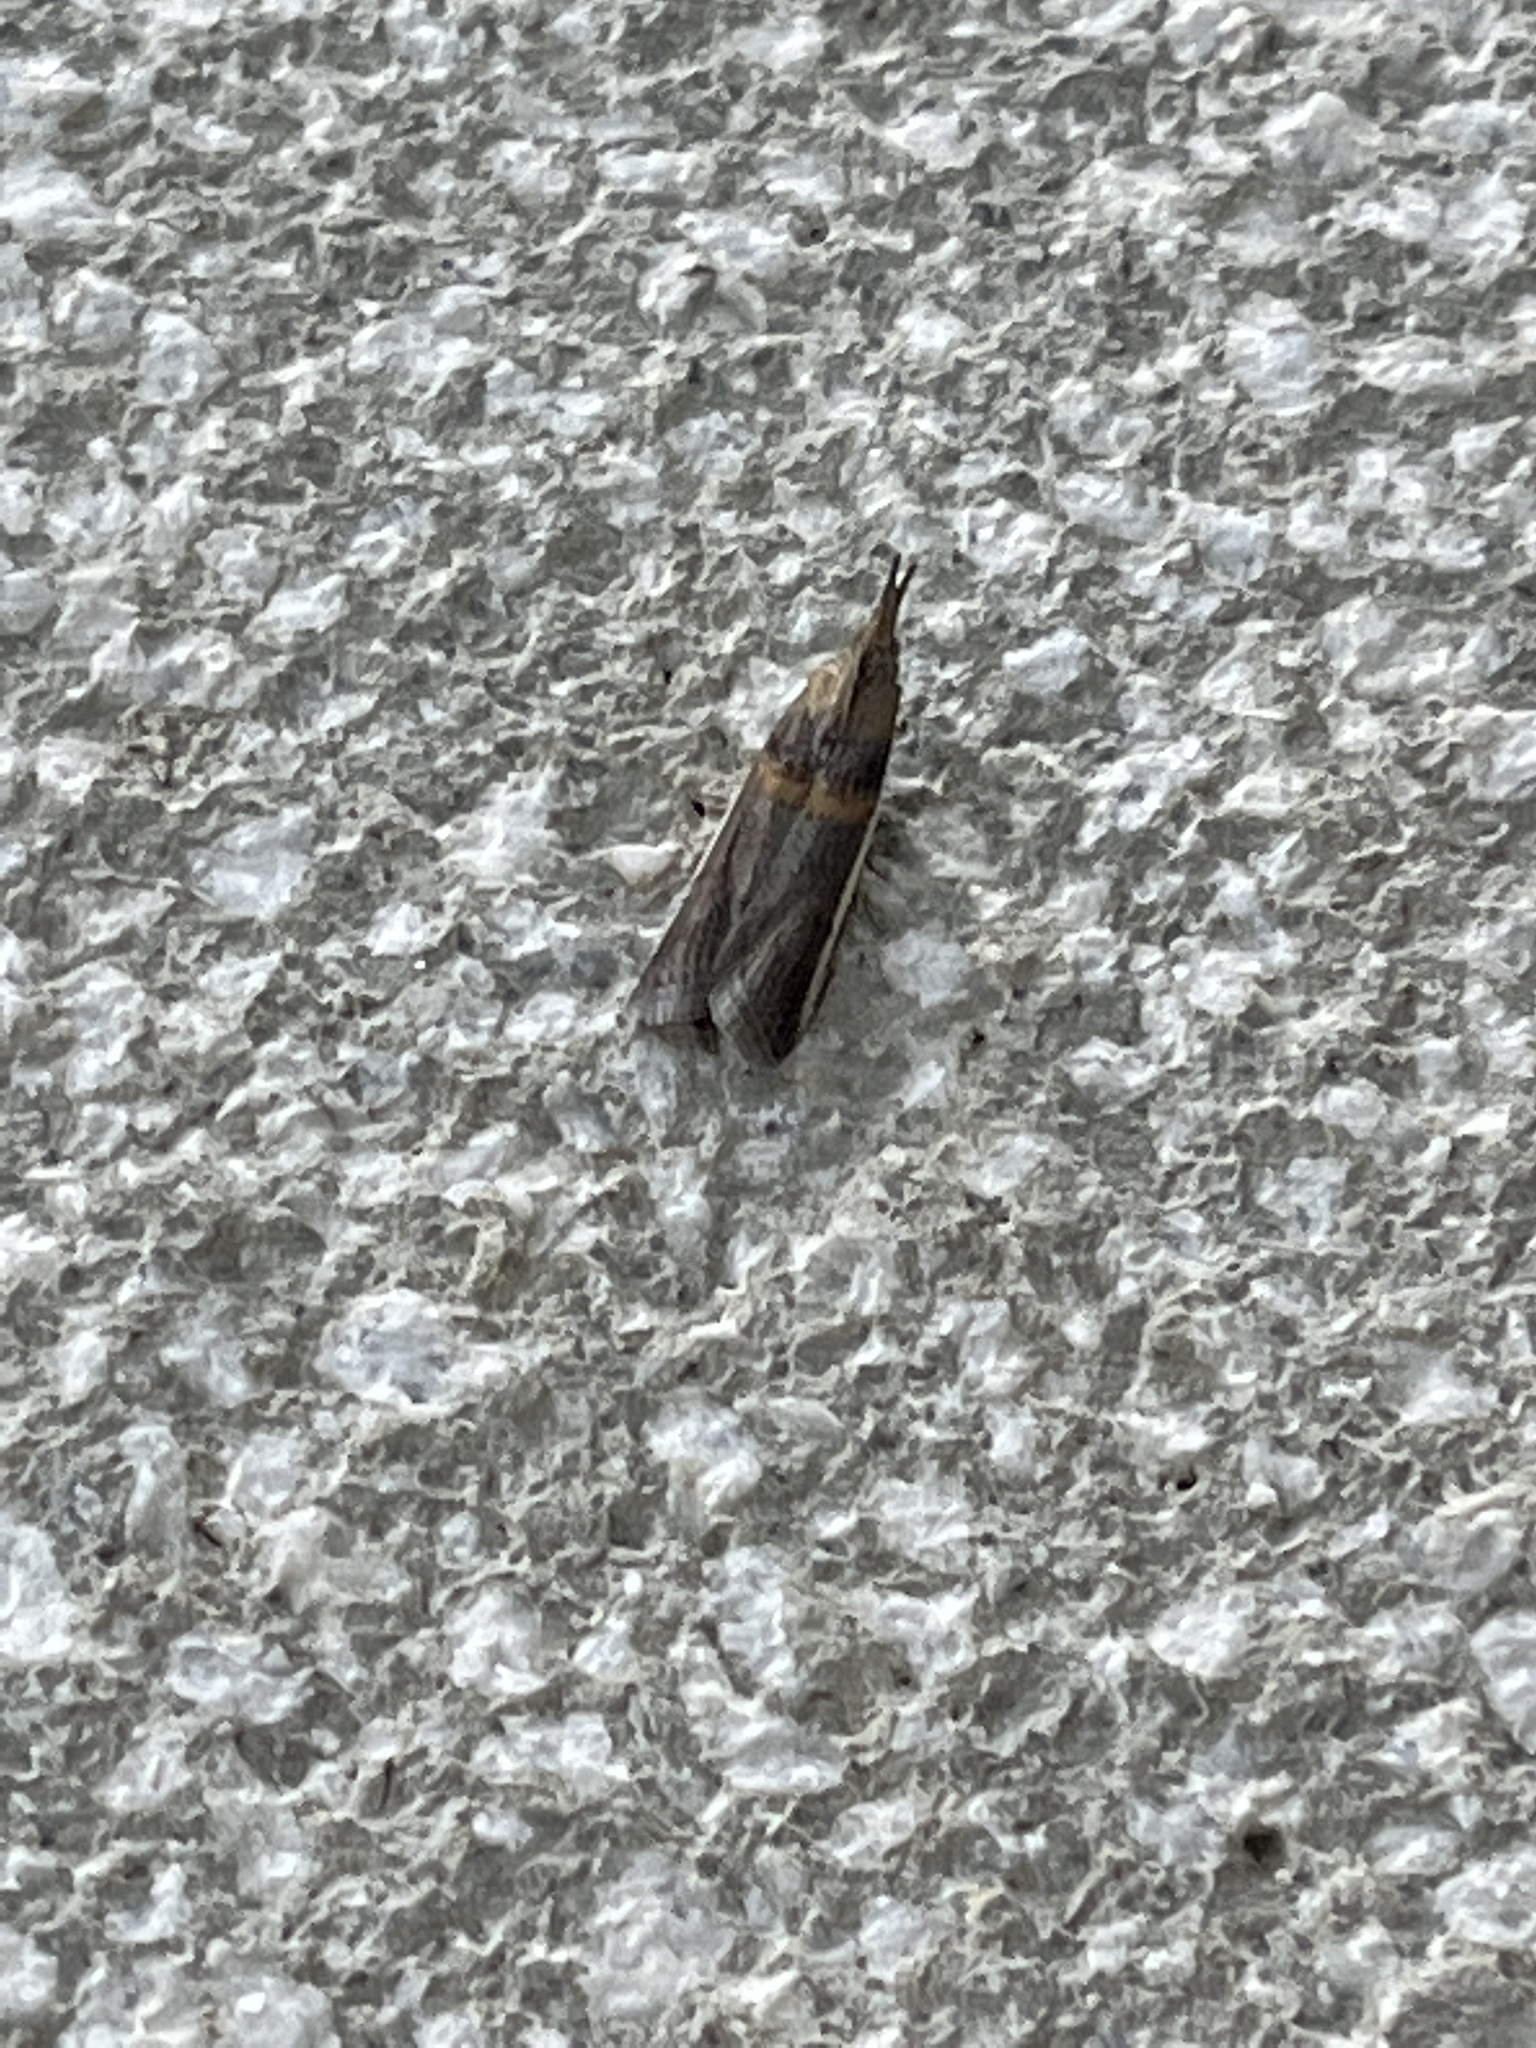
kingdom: Animalia
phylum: Arthropoda
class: Insecta
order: Lepidoptera
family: Pyralidae
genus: Etiella
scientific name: Etiella zinckenella
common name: Gold-banded etiella moth
